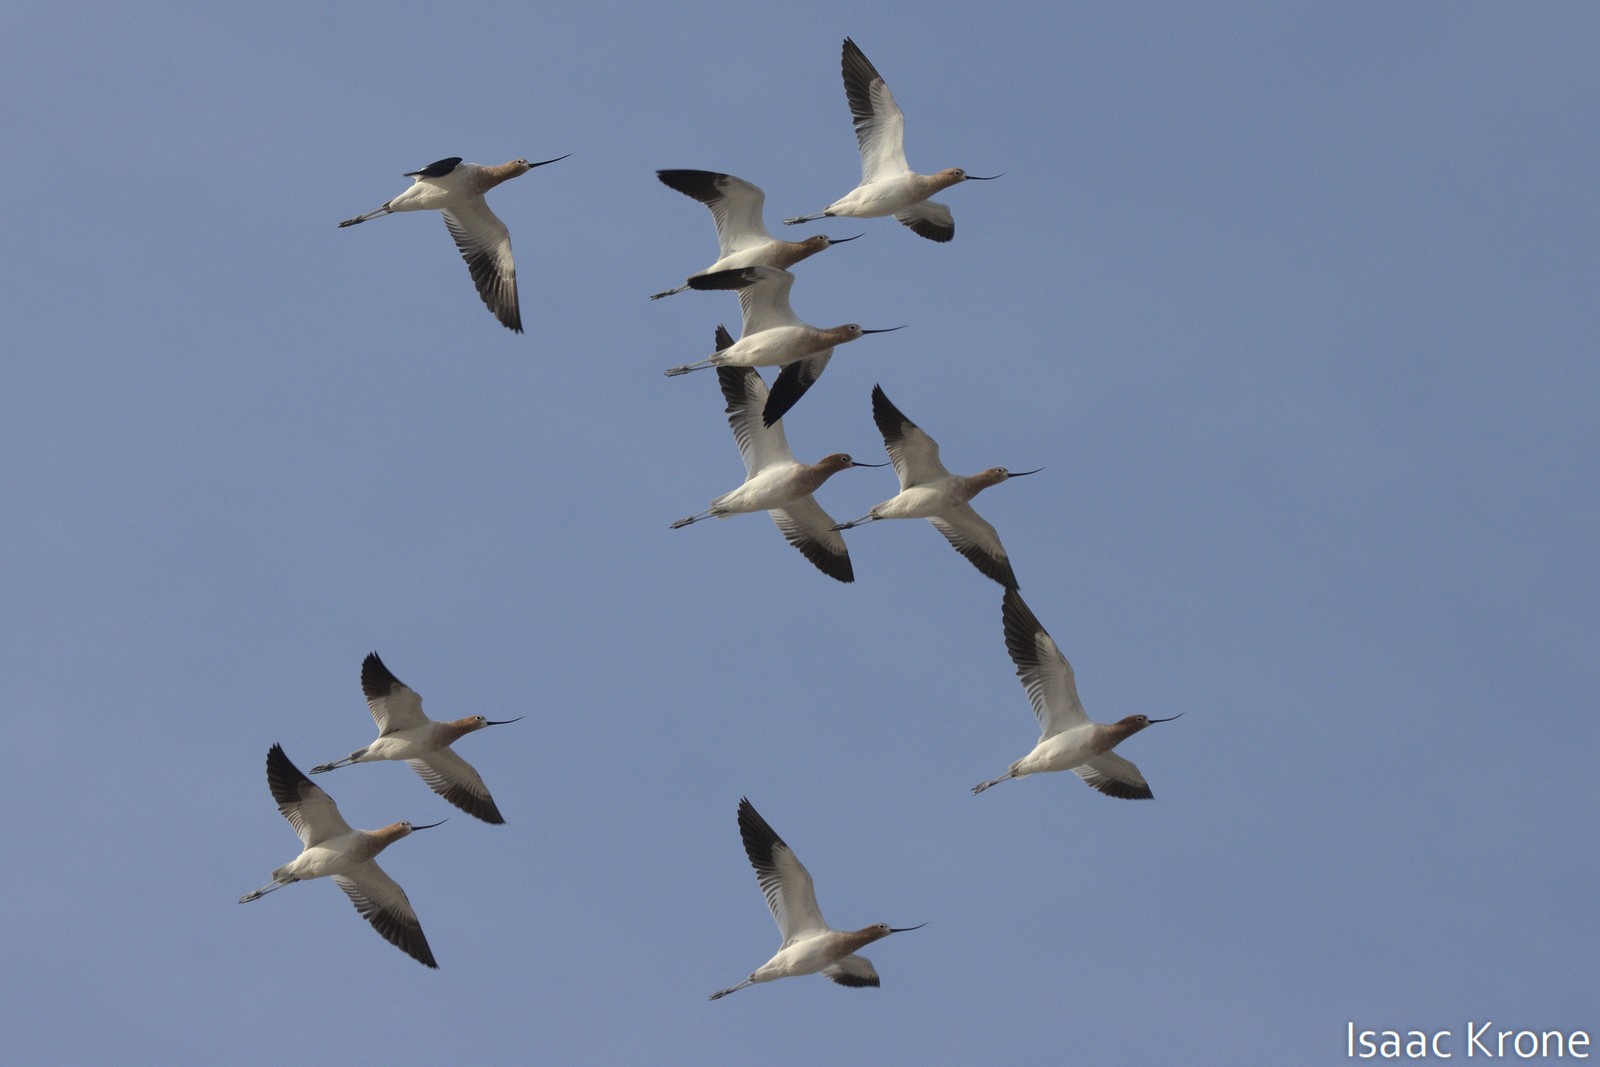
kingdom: Animalia
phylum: Chordata
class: Aves
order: Charadriiformes
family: Recurvirostridae
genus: Recurvirostra
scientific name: Recurvirostra americana
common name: American avocet
